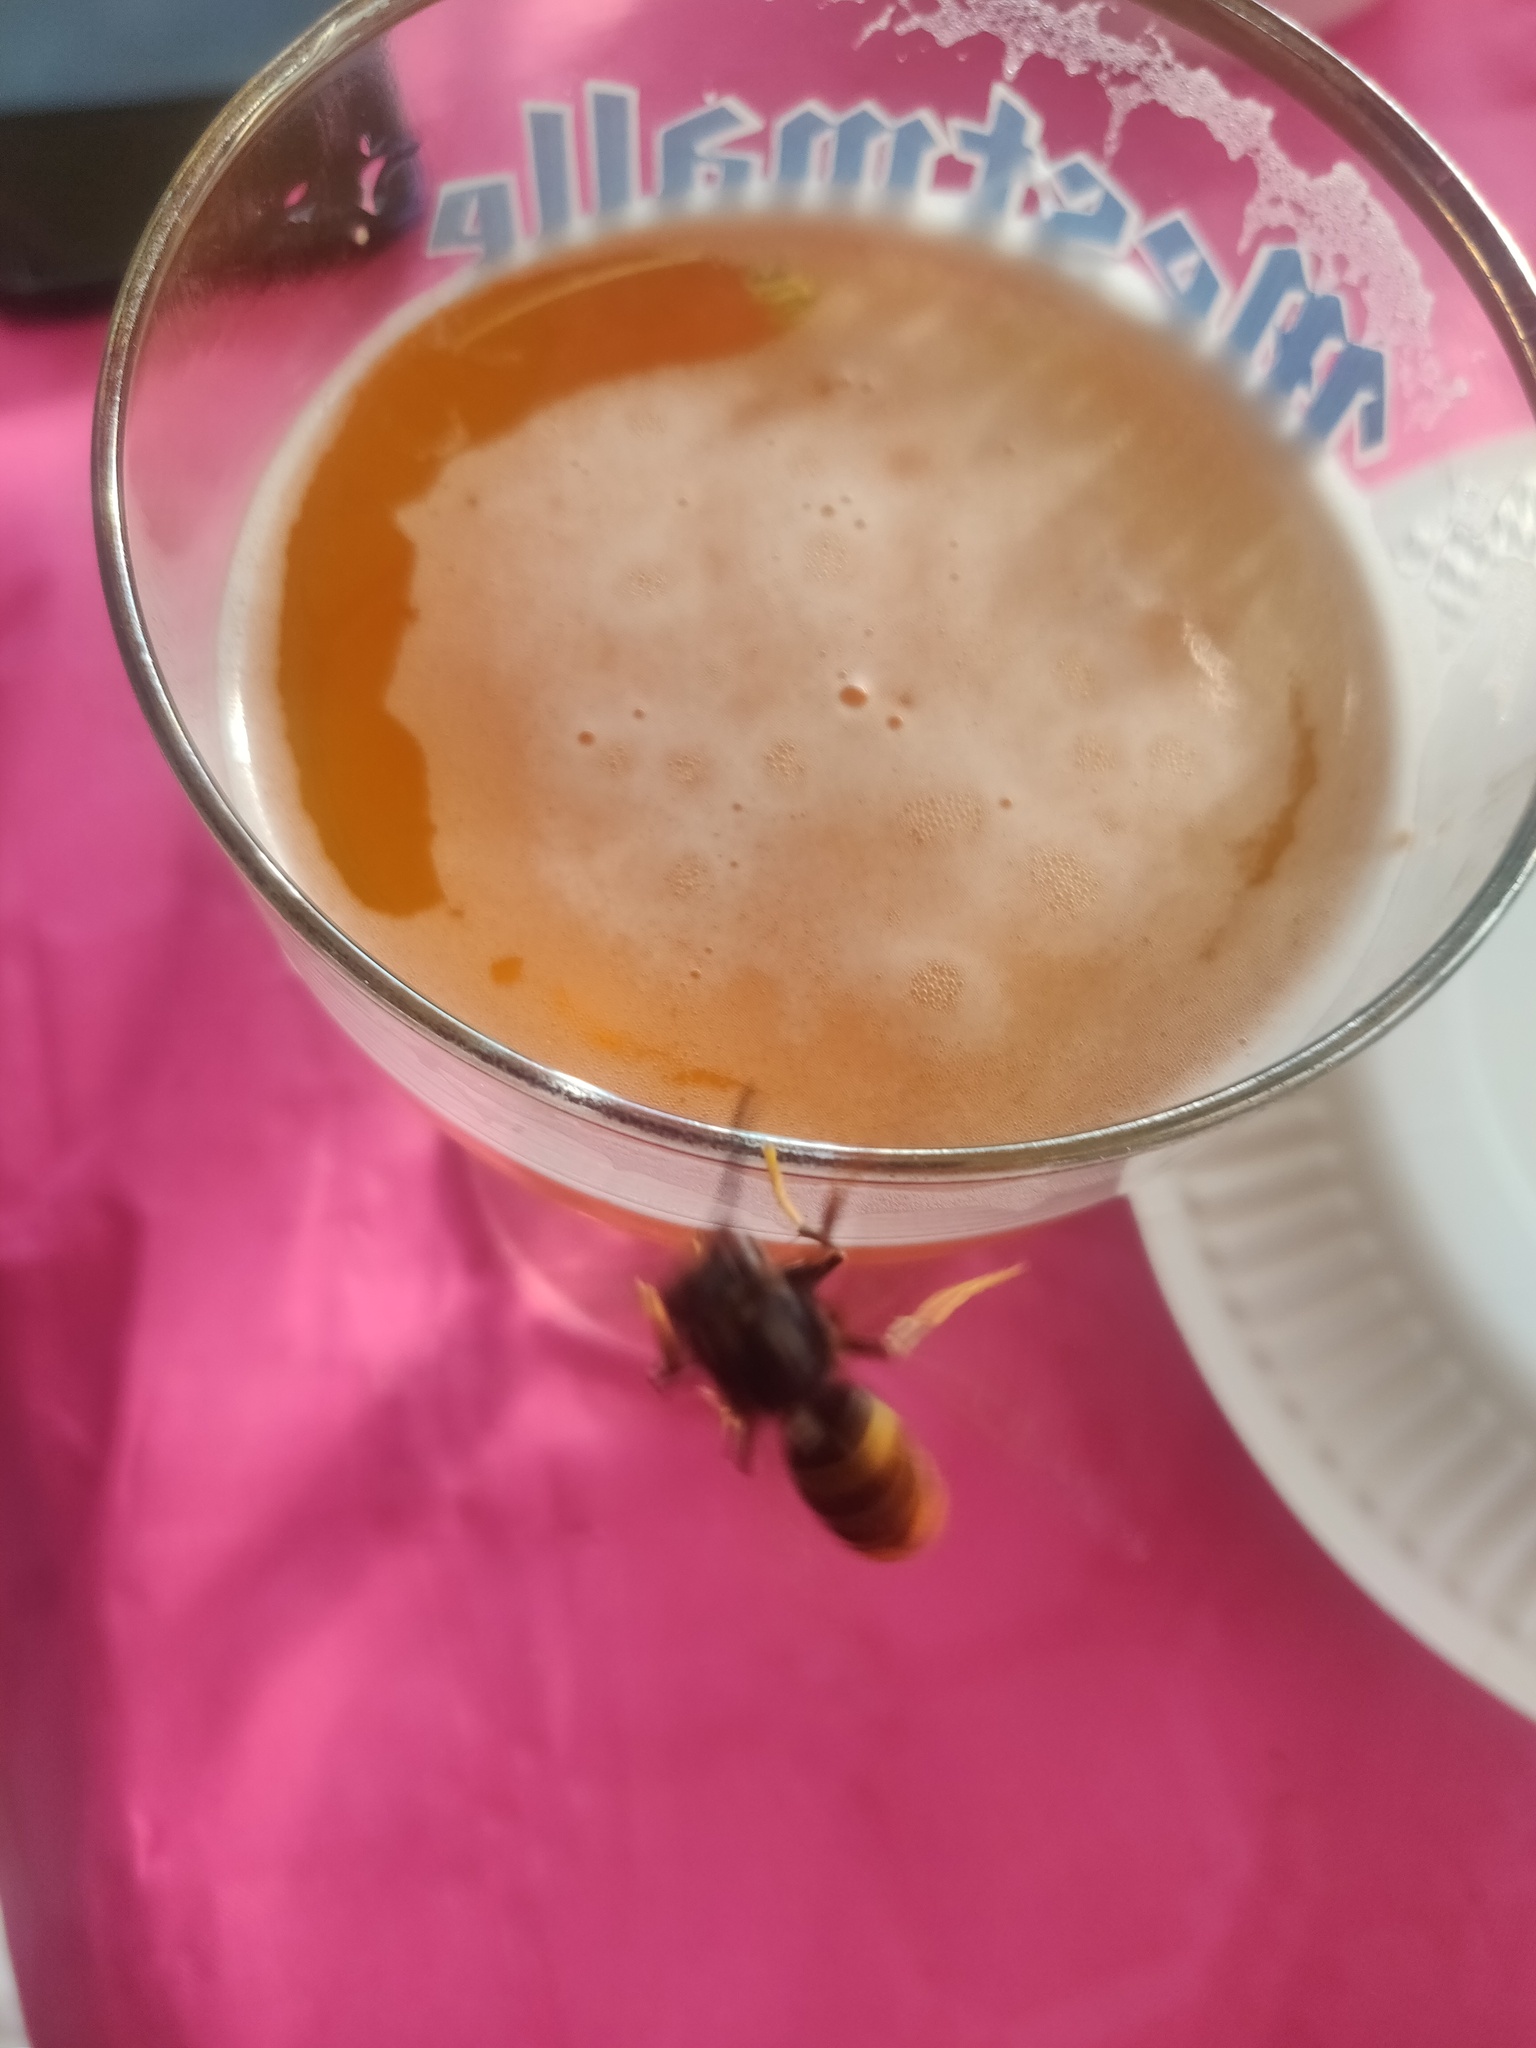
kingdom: Animalia
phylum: Arthropoda
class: Insecta
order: Hymenoptera
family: Vespidae
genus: Vespa
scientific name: Vespa velutina
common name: Asian hornet
